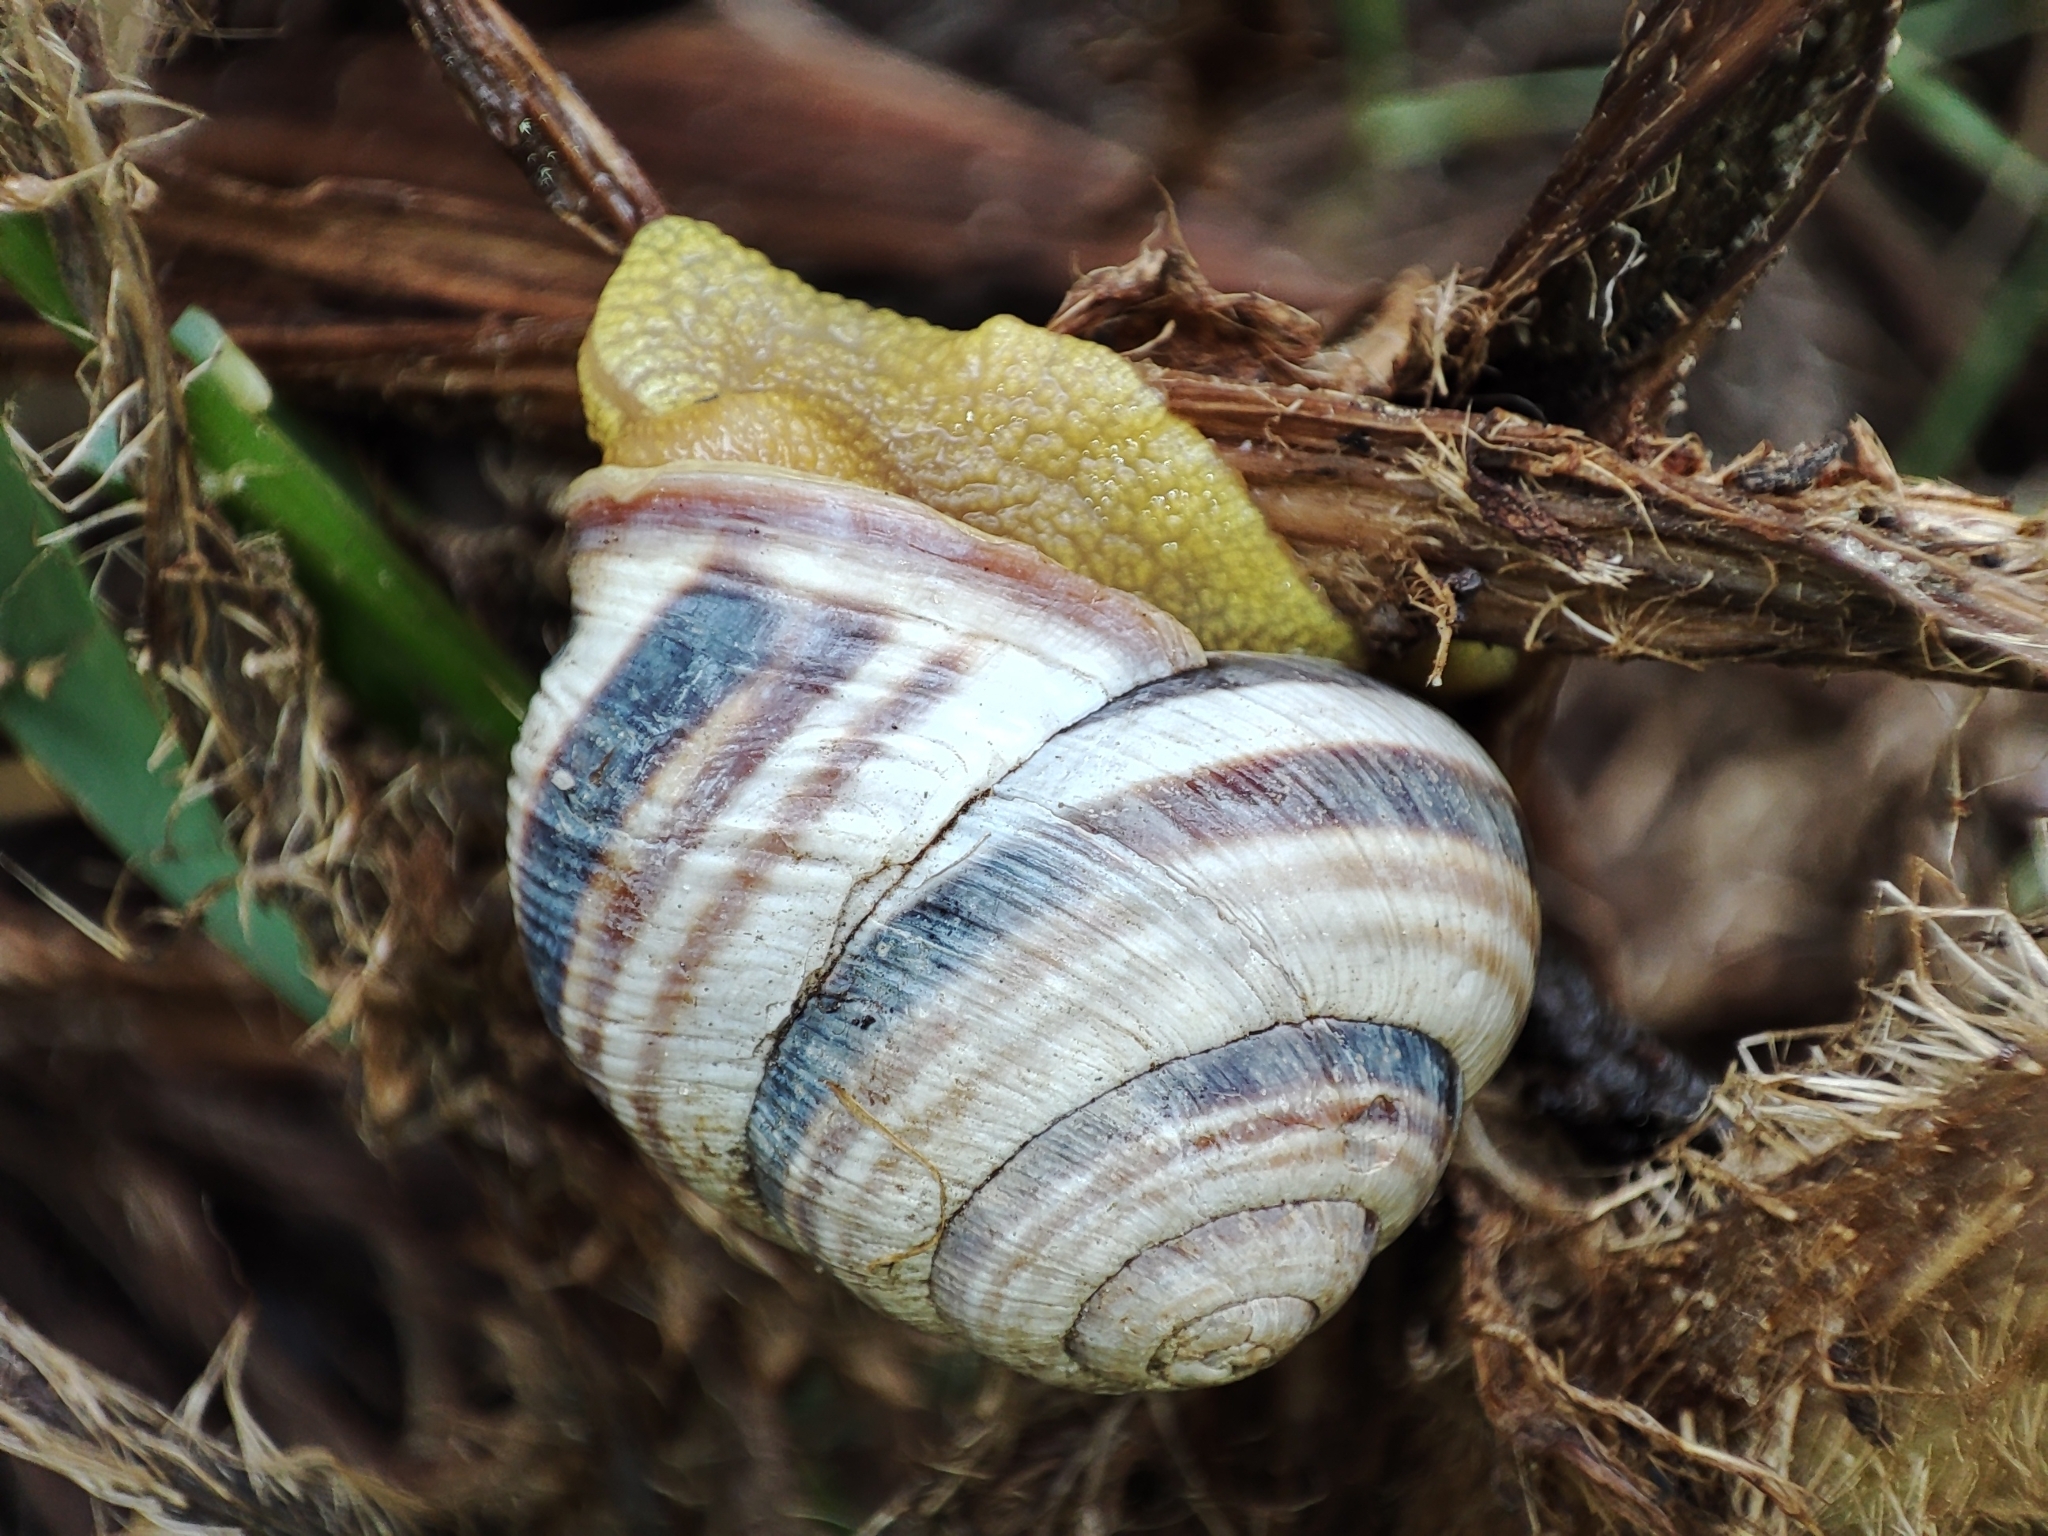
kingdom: Animalia
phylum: Mollusca
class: Gastropoda
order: Stylommatophora
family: Helicidae
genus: Caucasotachea
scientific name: Caucasotachea vindobonensis
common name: European helicid land snail
